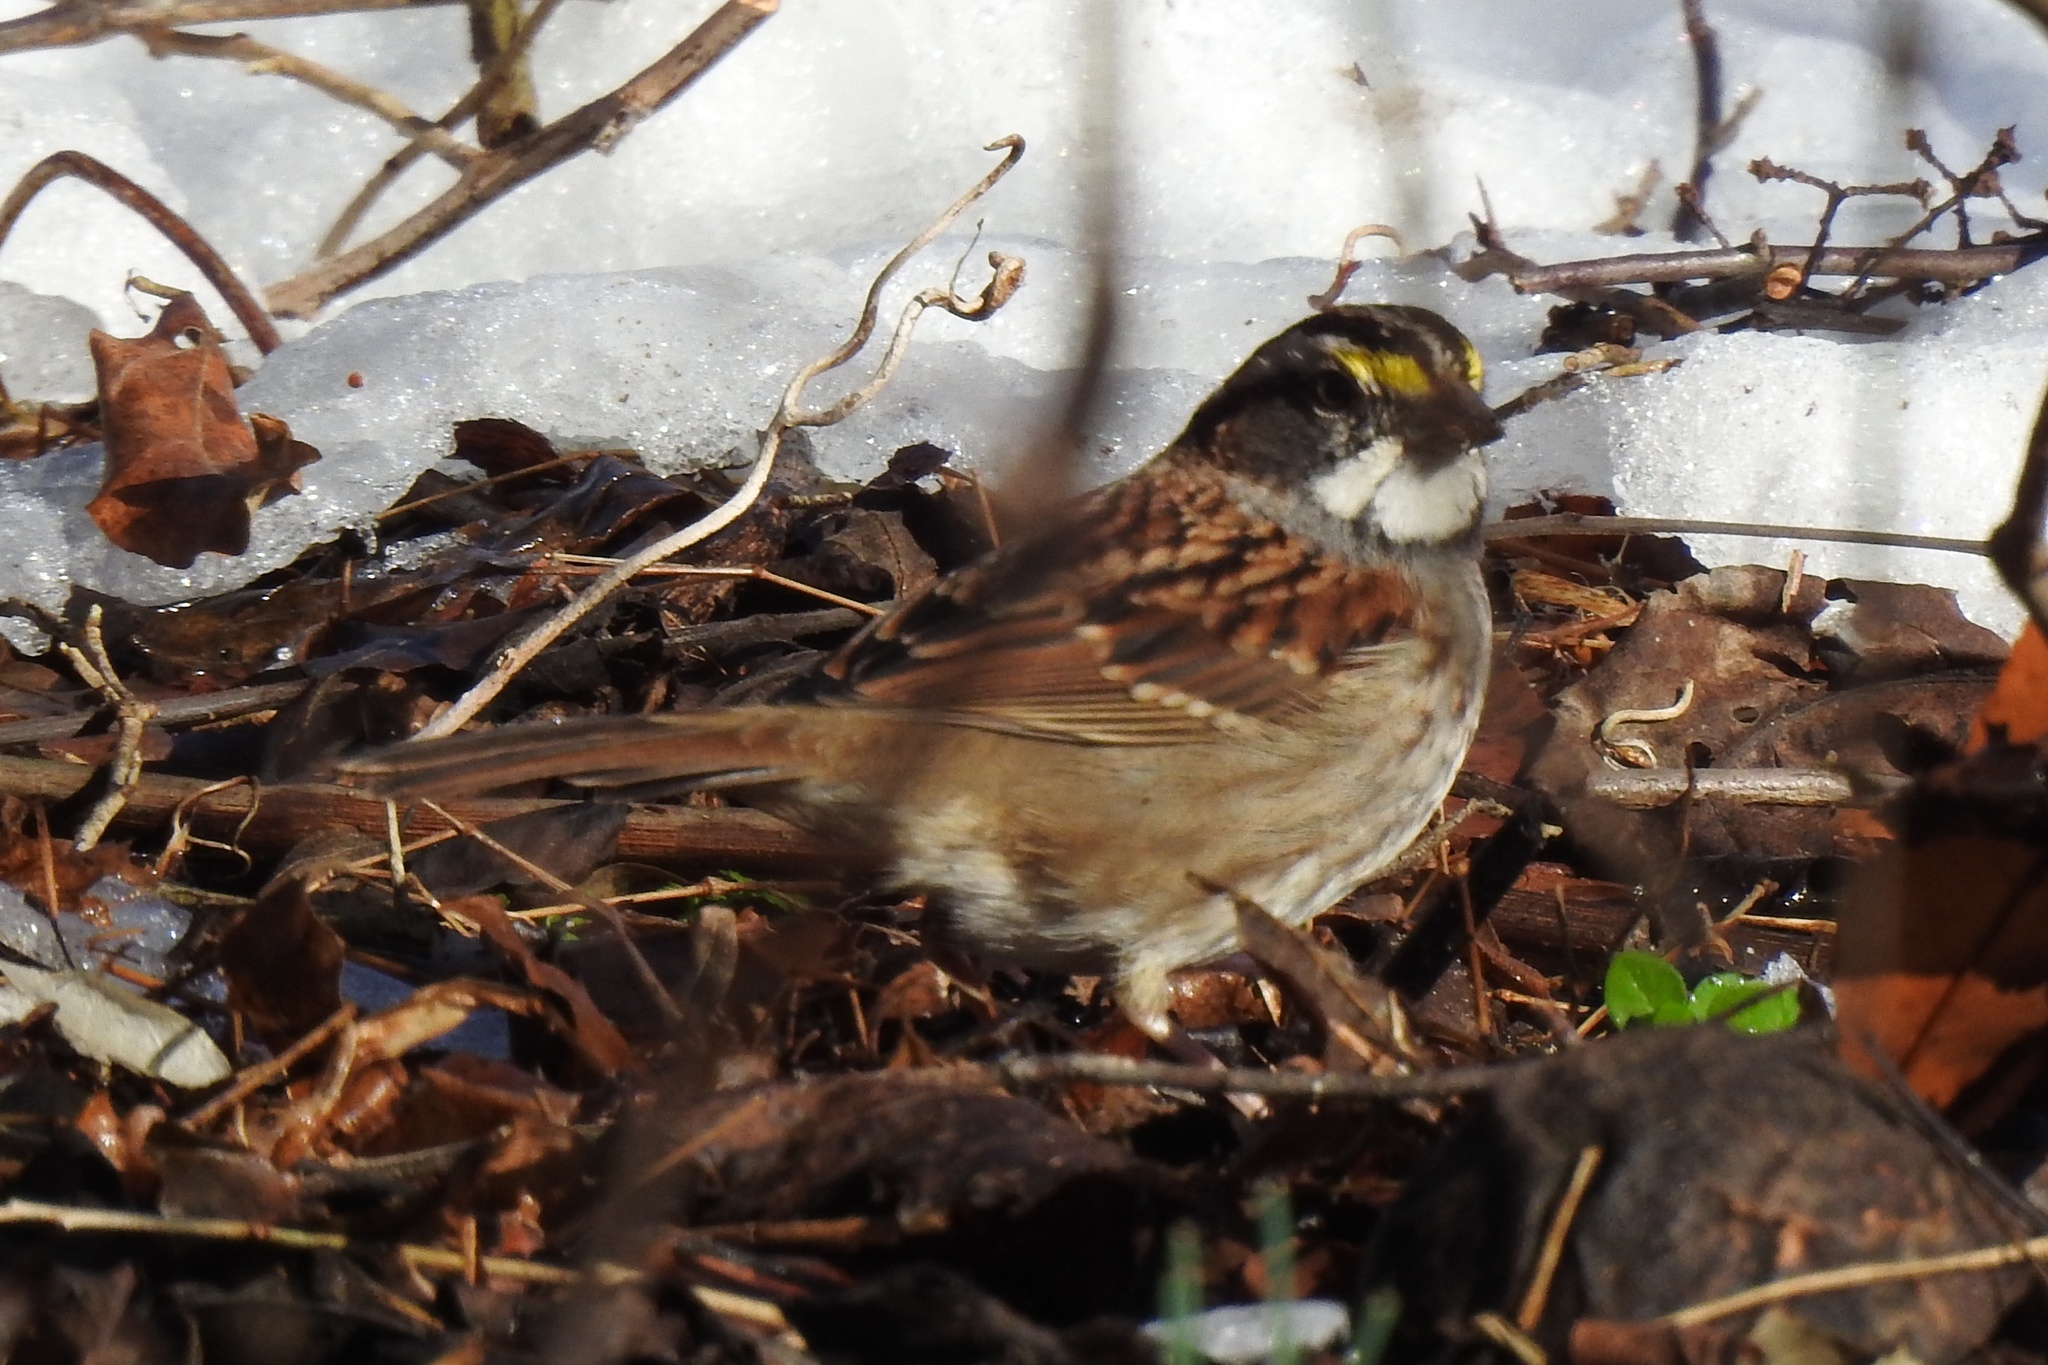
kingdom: Animalia
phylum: Chordata
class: Aves
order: Passeriformes
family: Passerellidae
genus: Zonotrichia
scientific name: Zonotrichia albicollis
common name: White-throated sparrow
